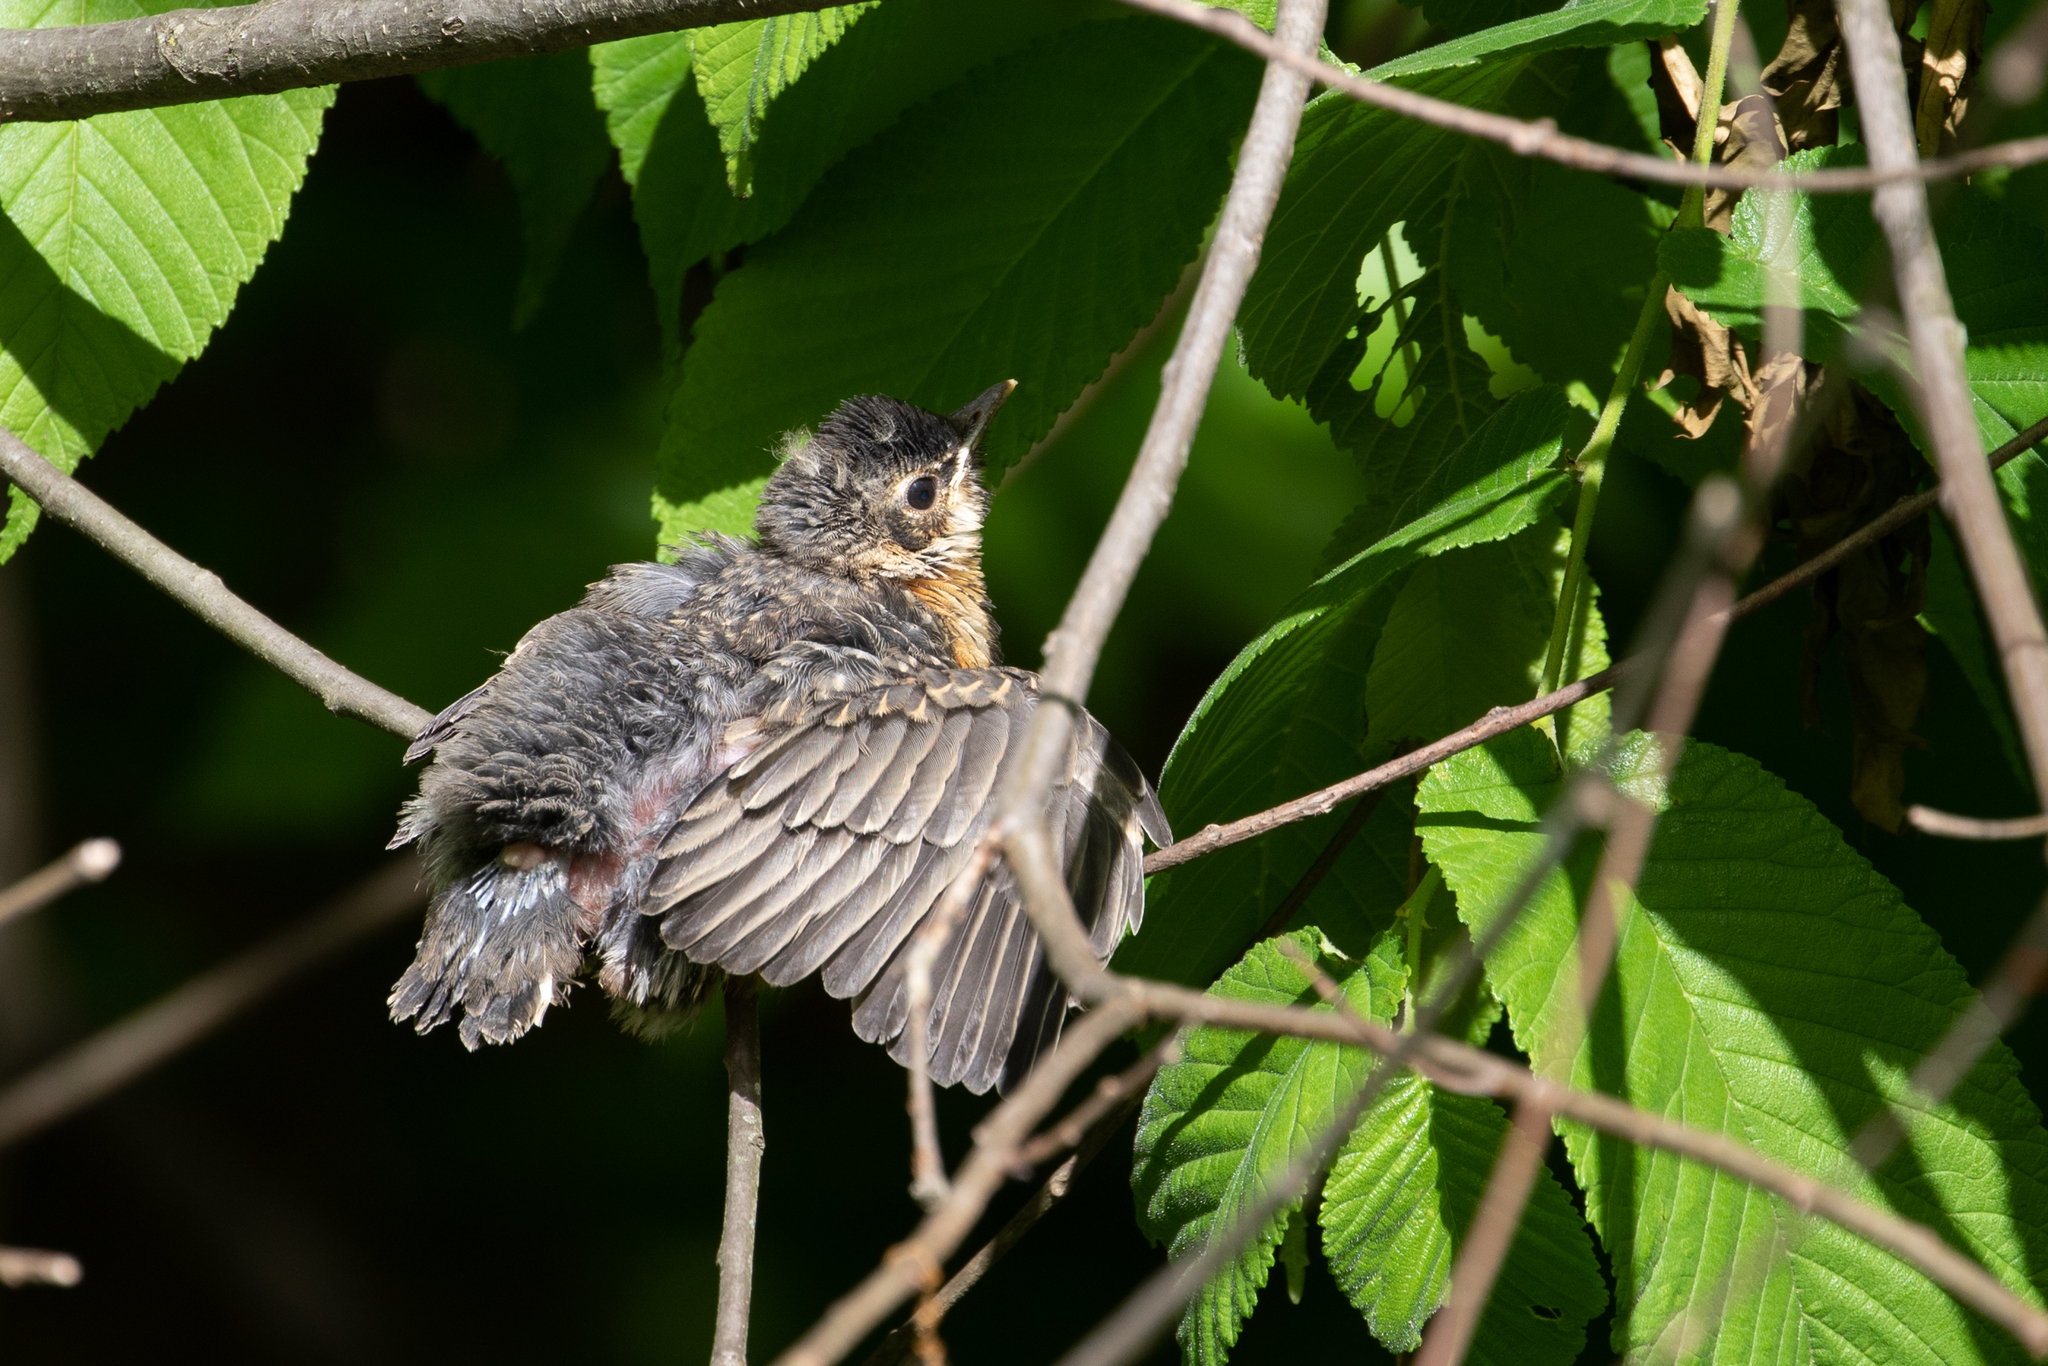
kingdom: Animalia
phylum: Chordata
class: Aves
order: Passeriformes
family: Turdidae
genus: Turdus
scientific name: Turdus migratorius
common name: American robin
